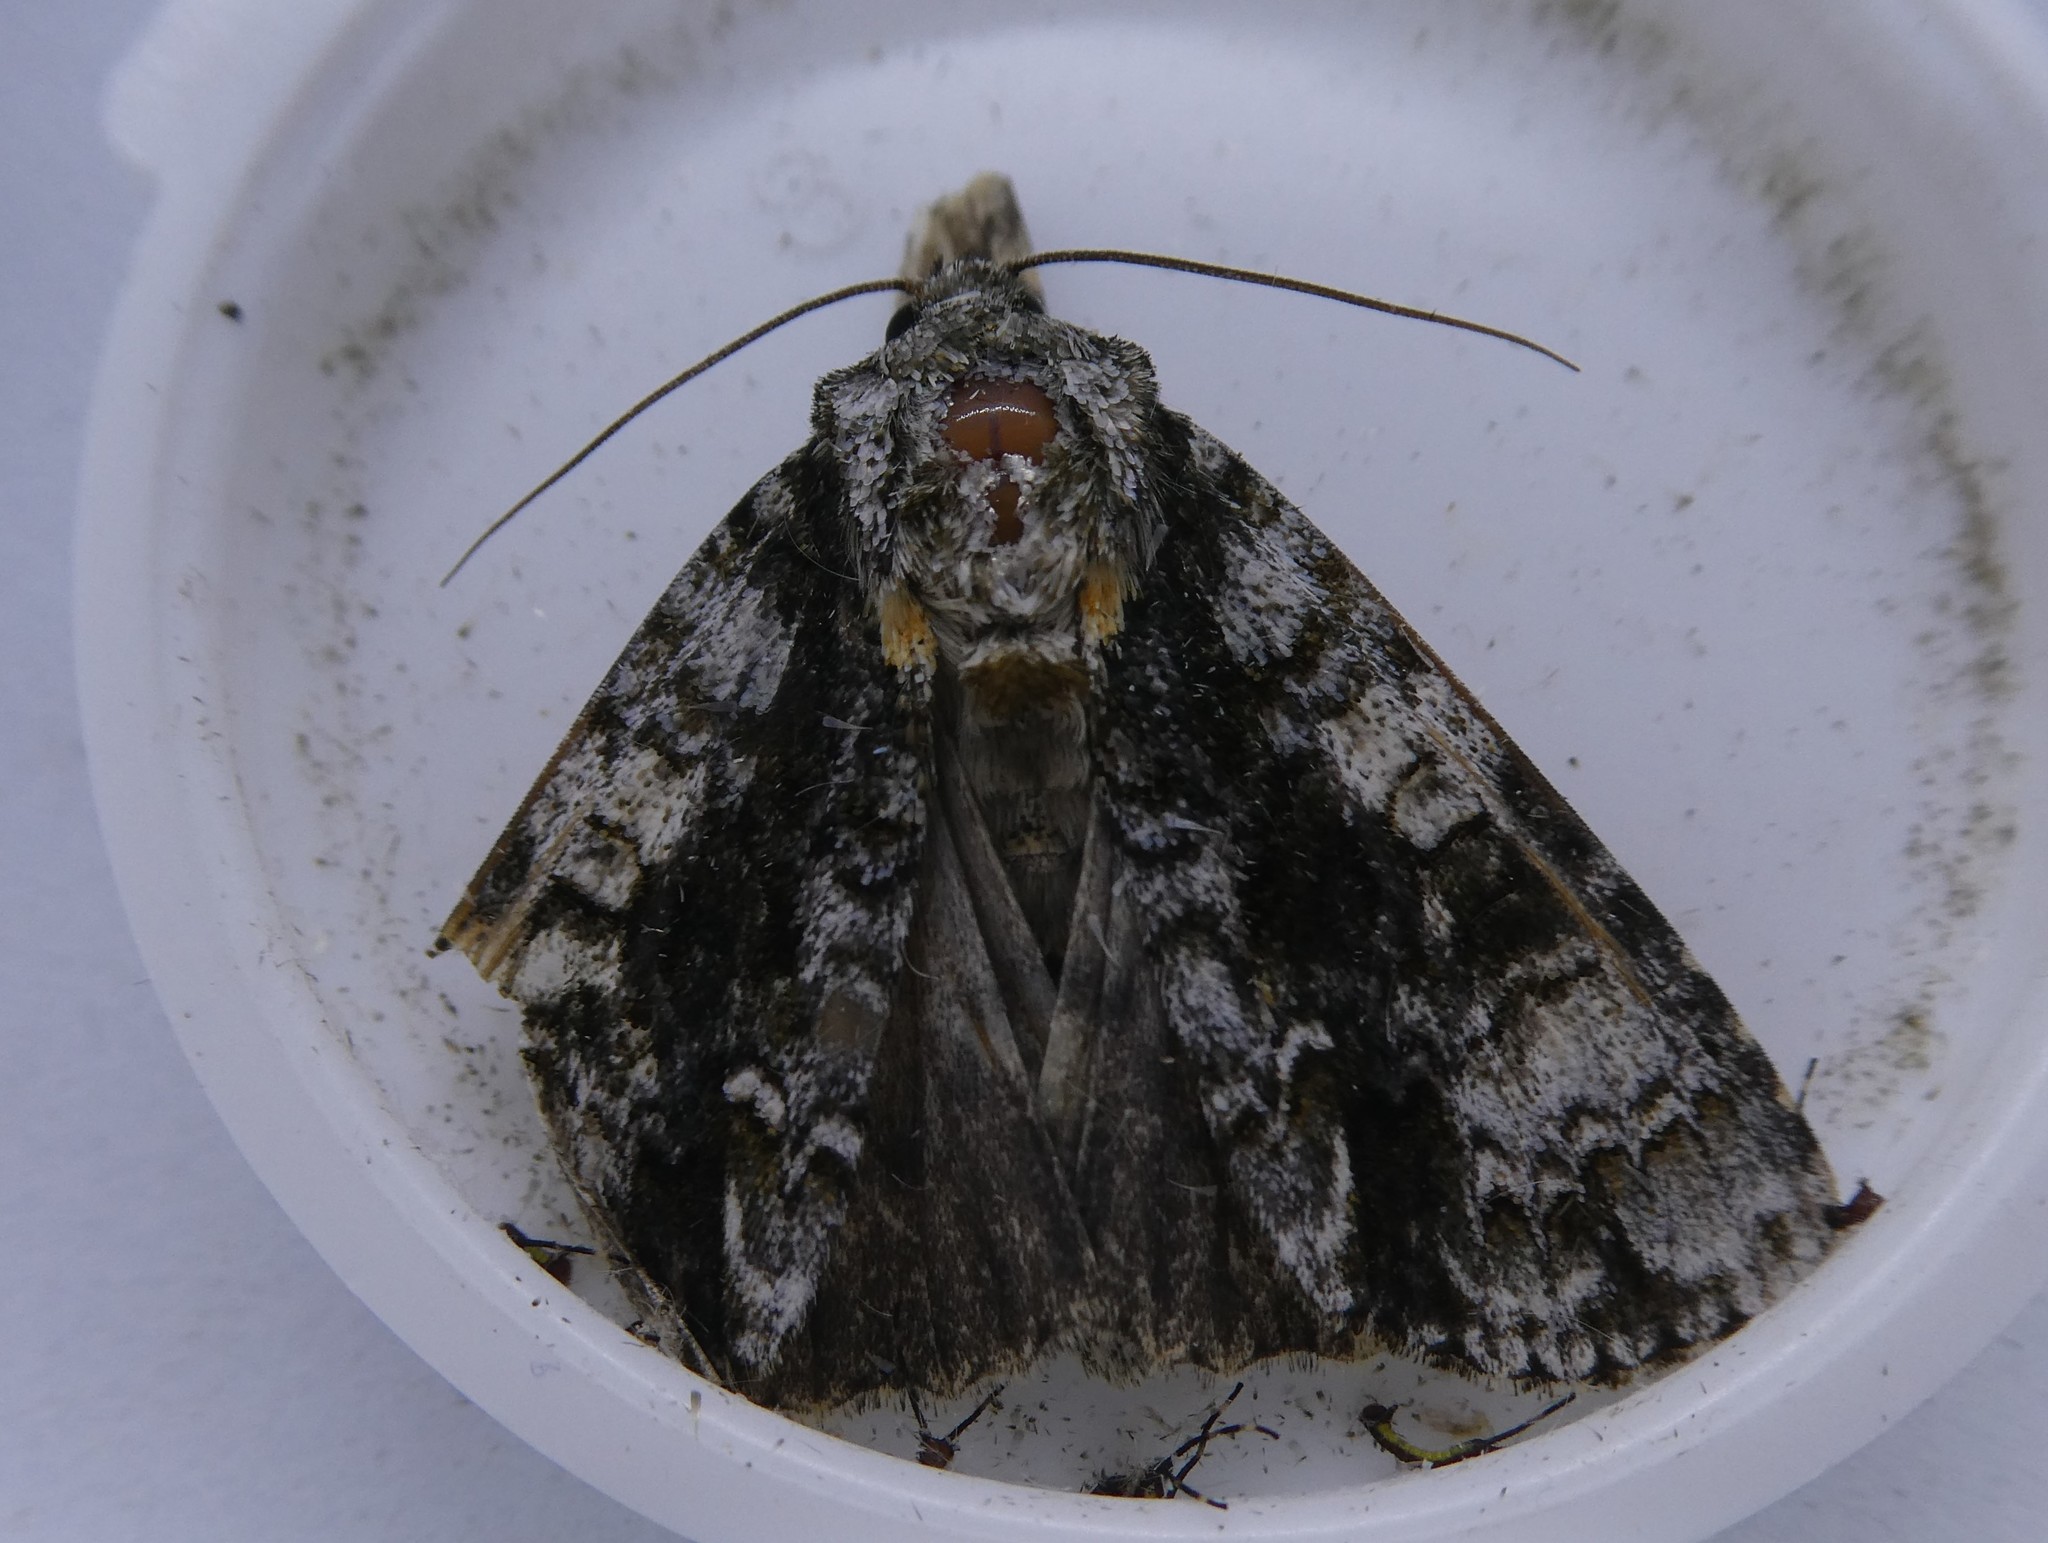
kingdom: Animalia
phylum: Arthropoda
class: Insecta
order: Lepidoptera
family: Noctuidae
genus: Acronicta
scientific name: Acronicta superans
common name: Splendid dagger
